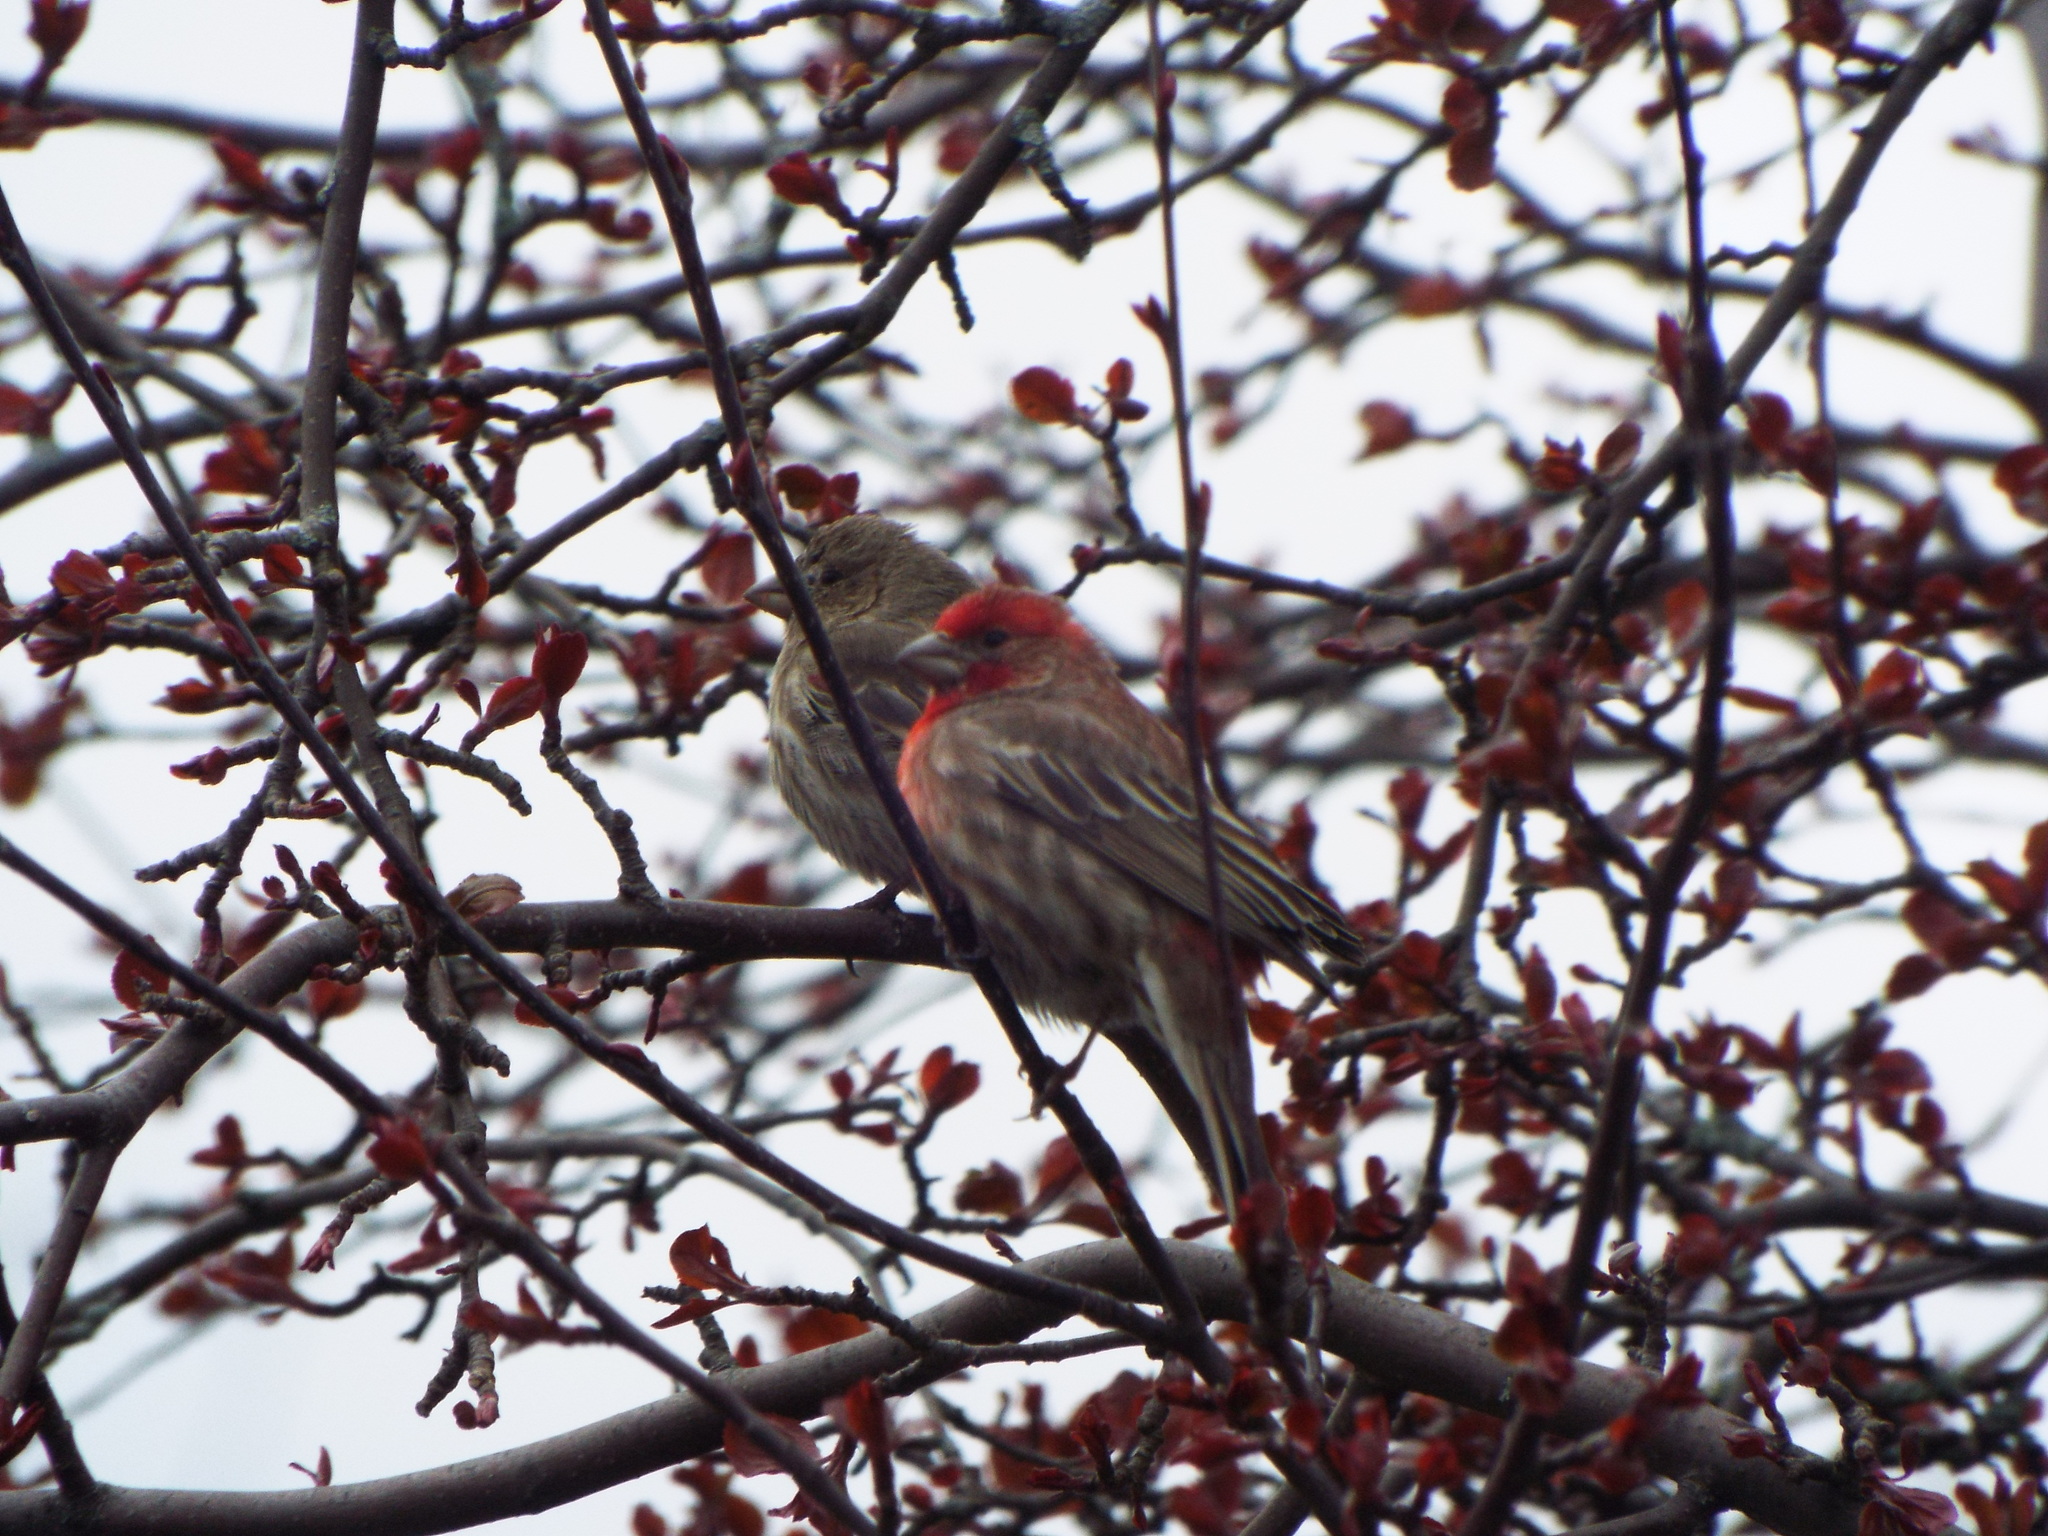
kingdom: Animalia
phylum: Chordata
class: Aves
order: Passeriformes
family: Fringillidae
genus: Haemorhous
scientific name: Haemorhous mexicanus
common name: House finch
